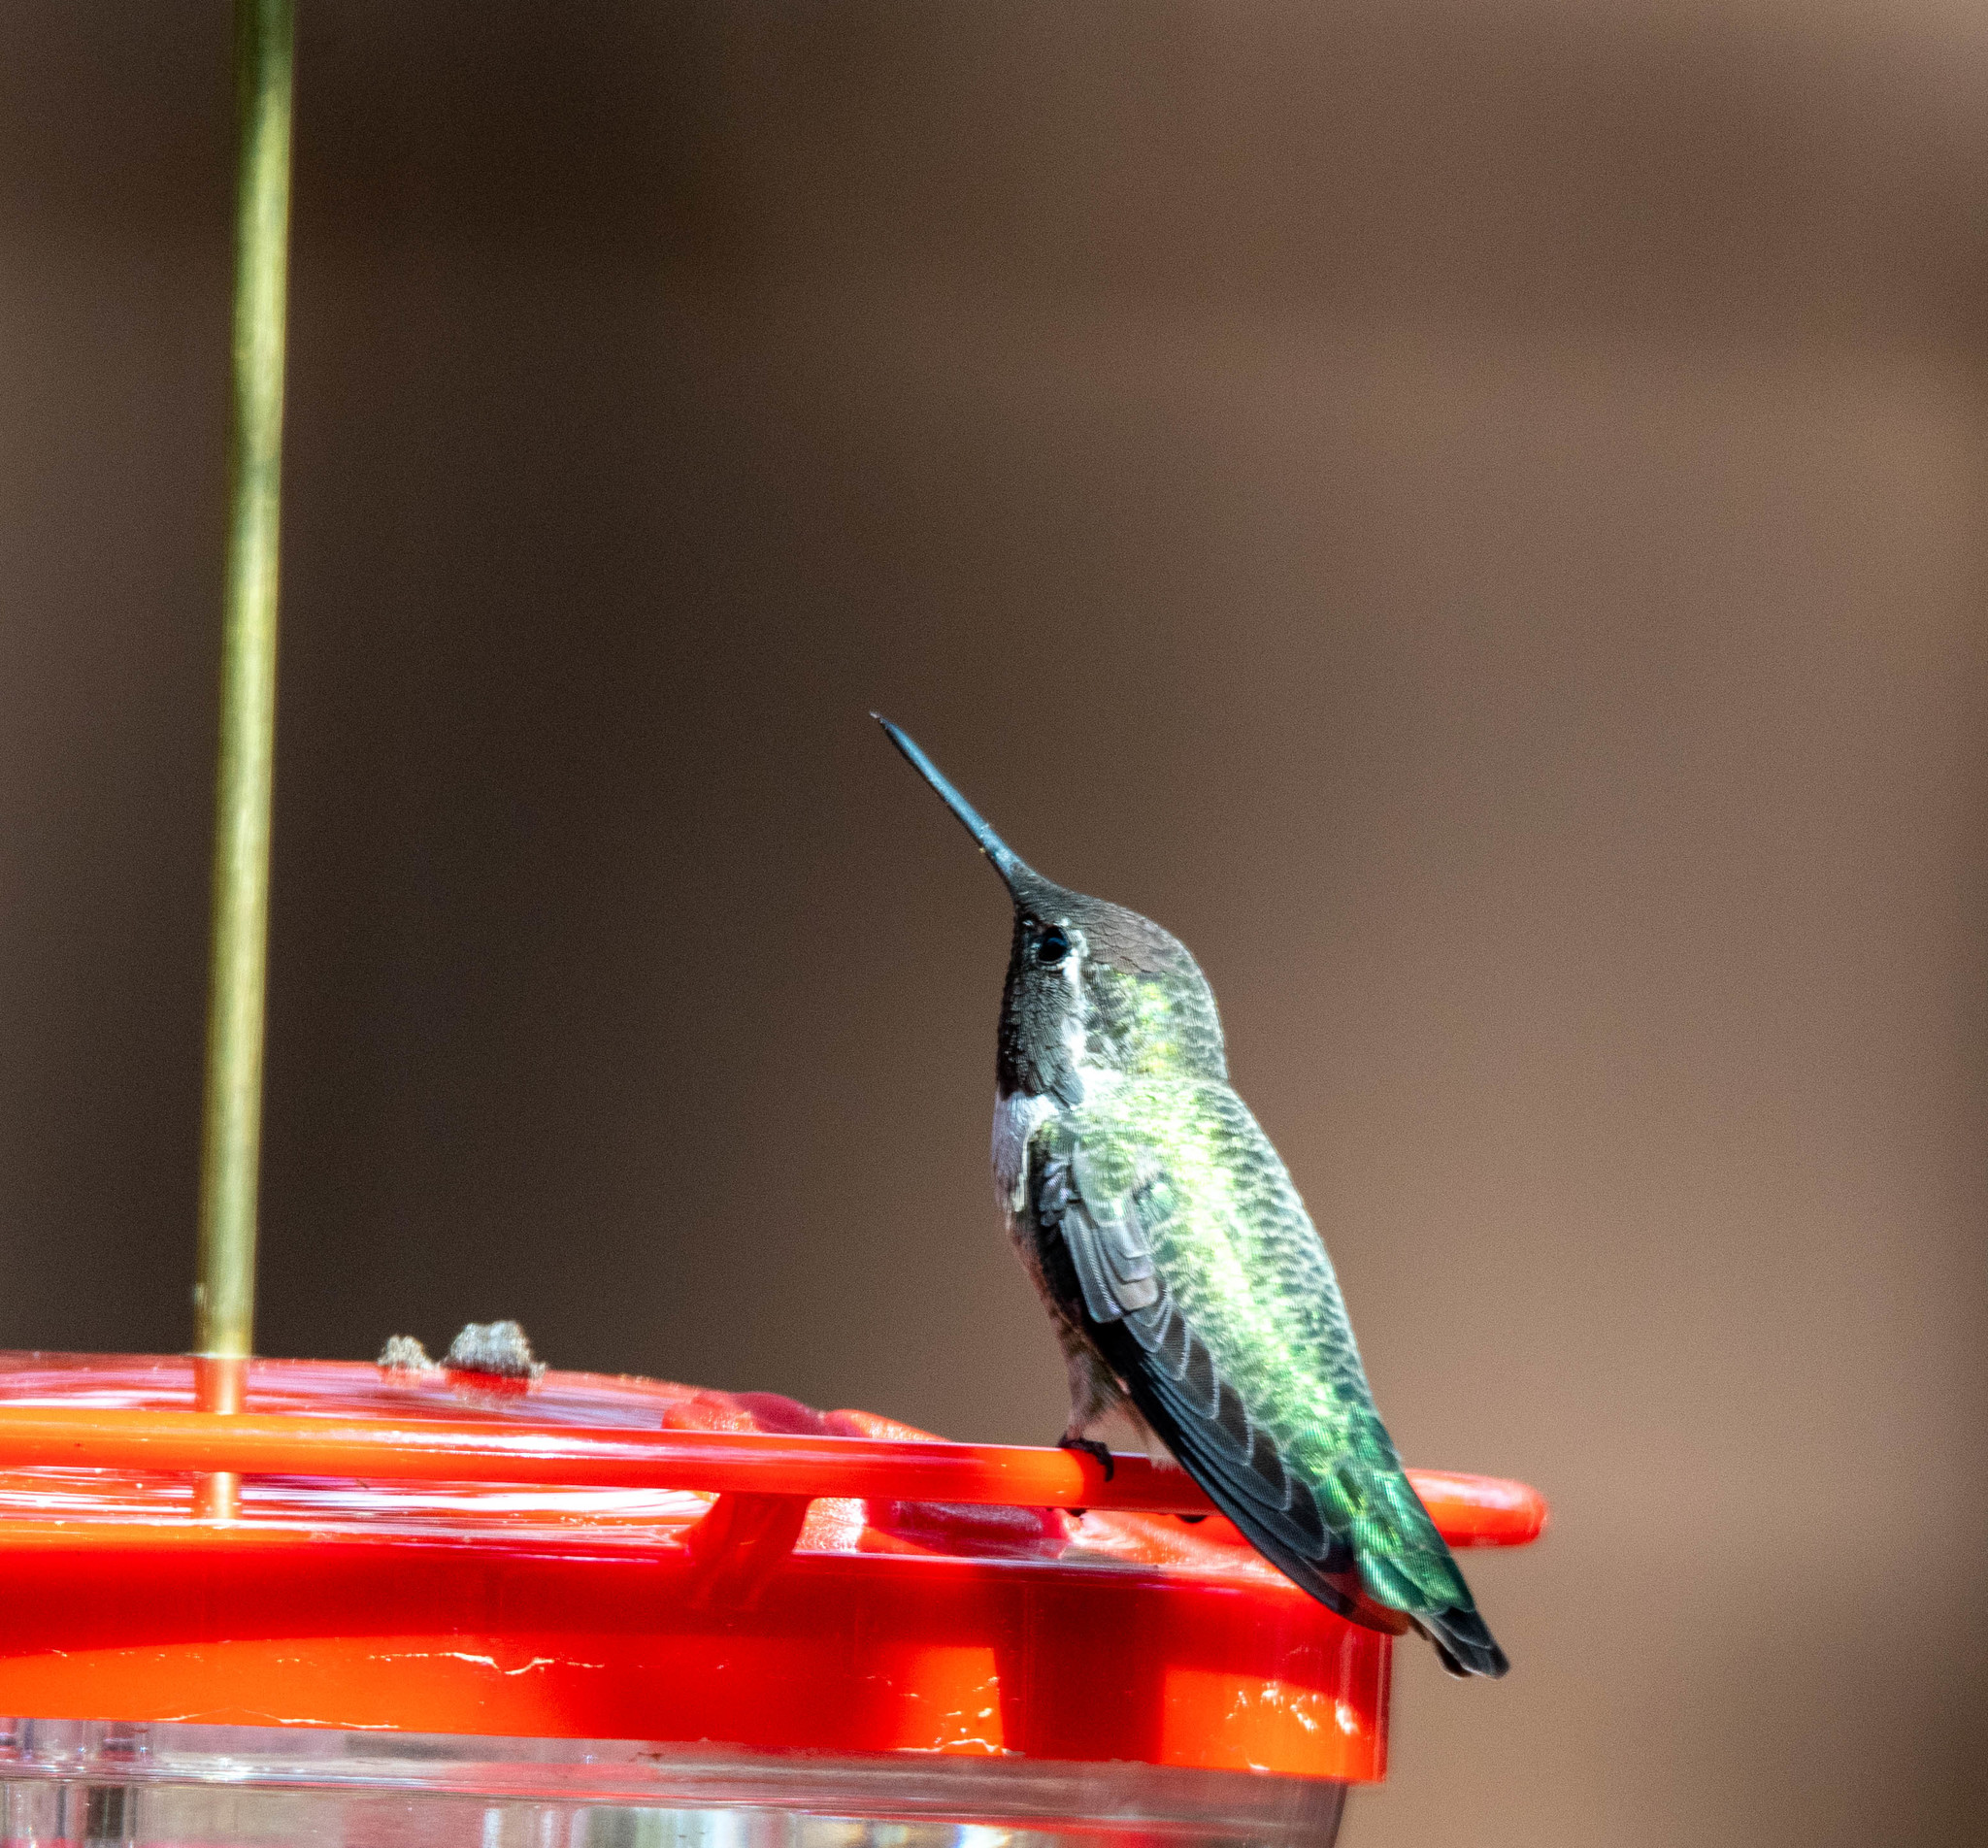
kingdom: Animalia
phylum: Chordata
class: Aves
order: Apodiformes
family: Trochilidae
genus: Calypte
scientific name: Calypte anna
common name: Anna's hummingbird
